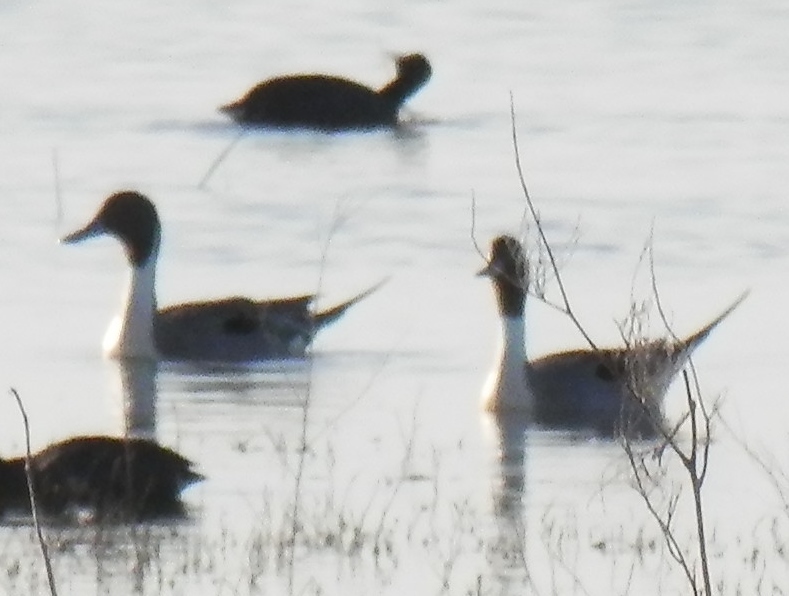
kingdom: Animalia
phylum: Chordata
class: Aves
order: Anseriformes
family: Anatidae
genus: Anas
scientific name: Anas acuta
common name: Northern pintail
